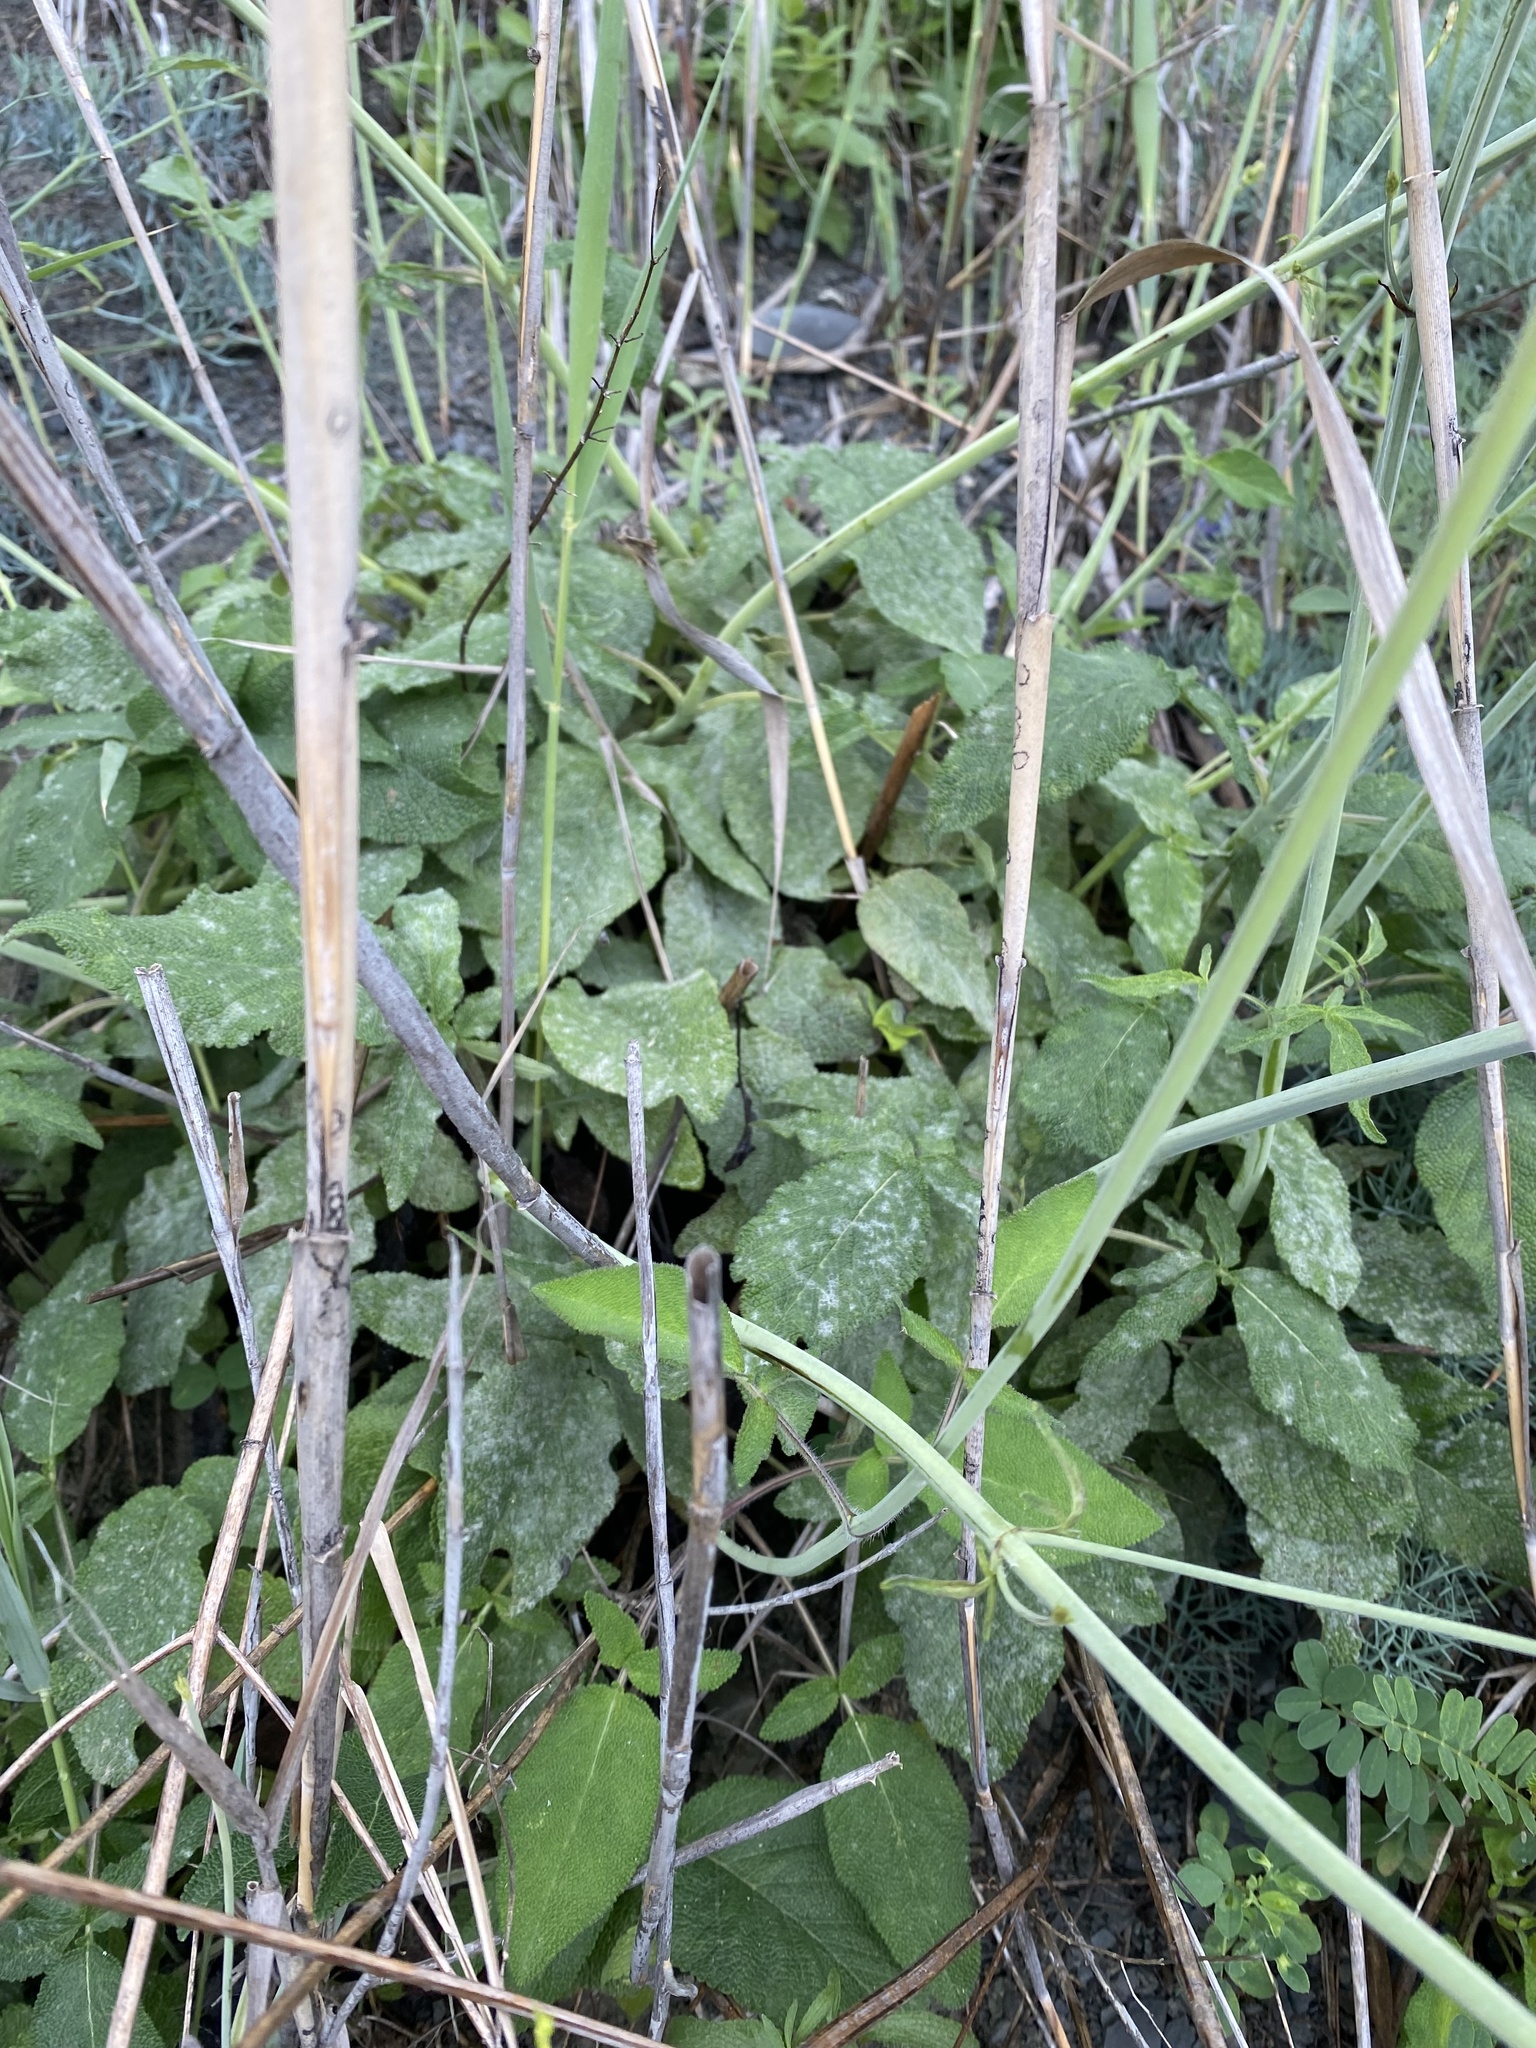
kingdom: Plantae
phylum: Tracheophyta
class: Magnoliopsida
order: Lamiales
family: Lamiaceae
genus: Salvia
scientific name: Salvia ringens
